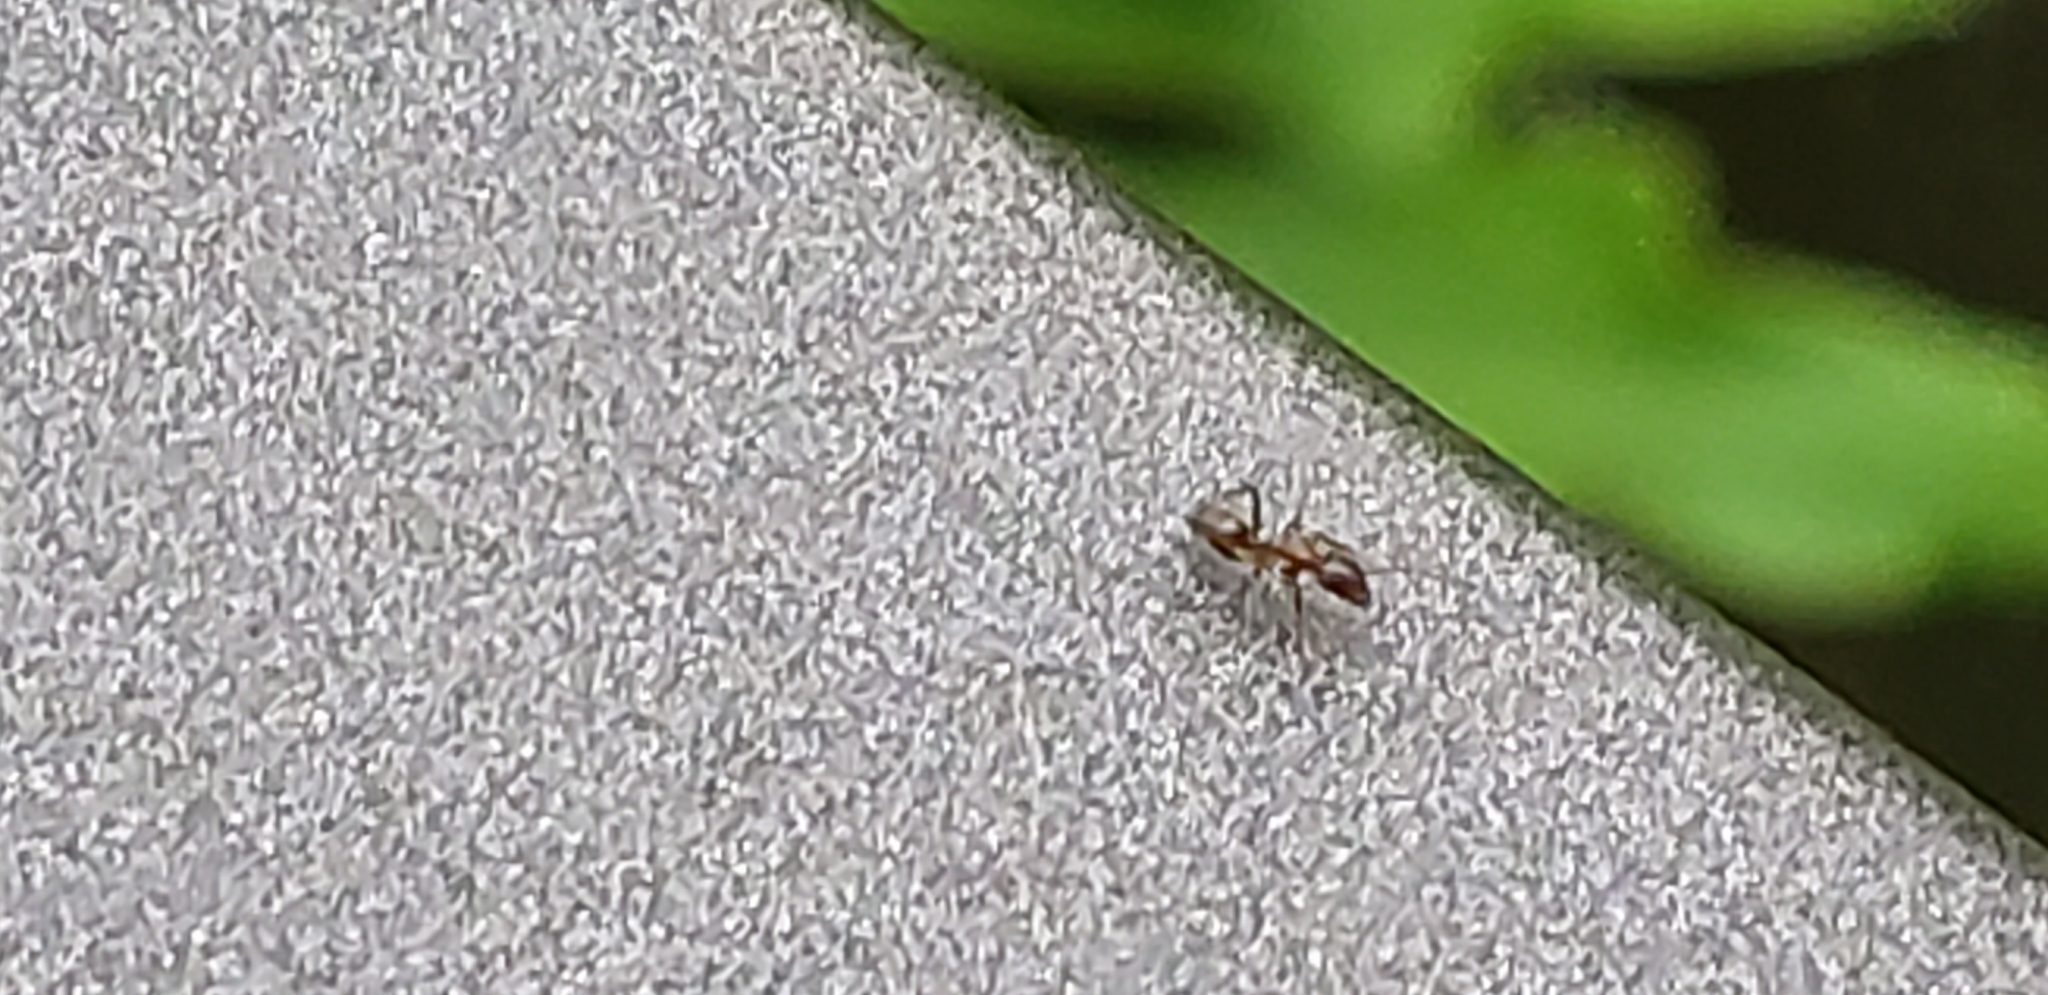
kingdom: Animalia
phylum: Arthropoda
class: Insecta
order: Hymenoptera
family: Formicidae
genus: Linepithema
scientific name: Linepithema humile
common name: Argentine ant
